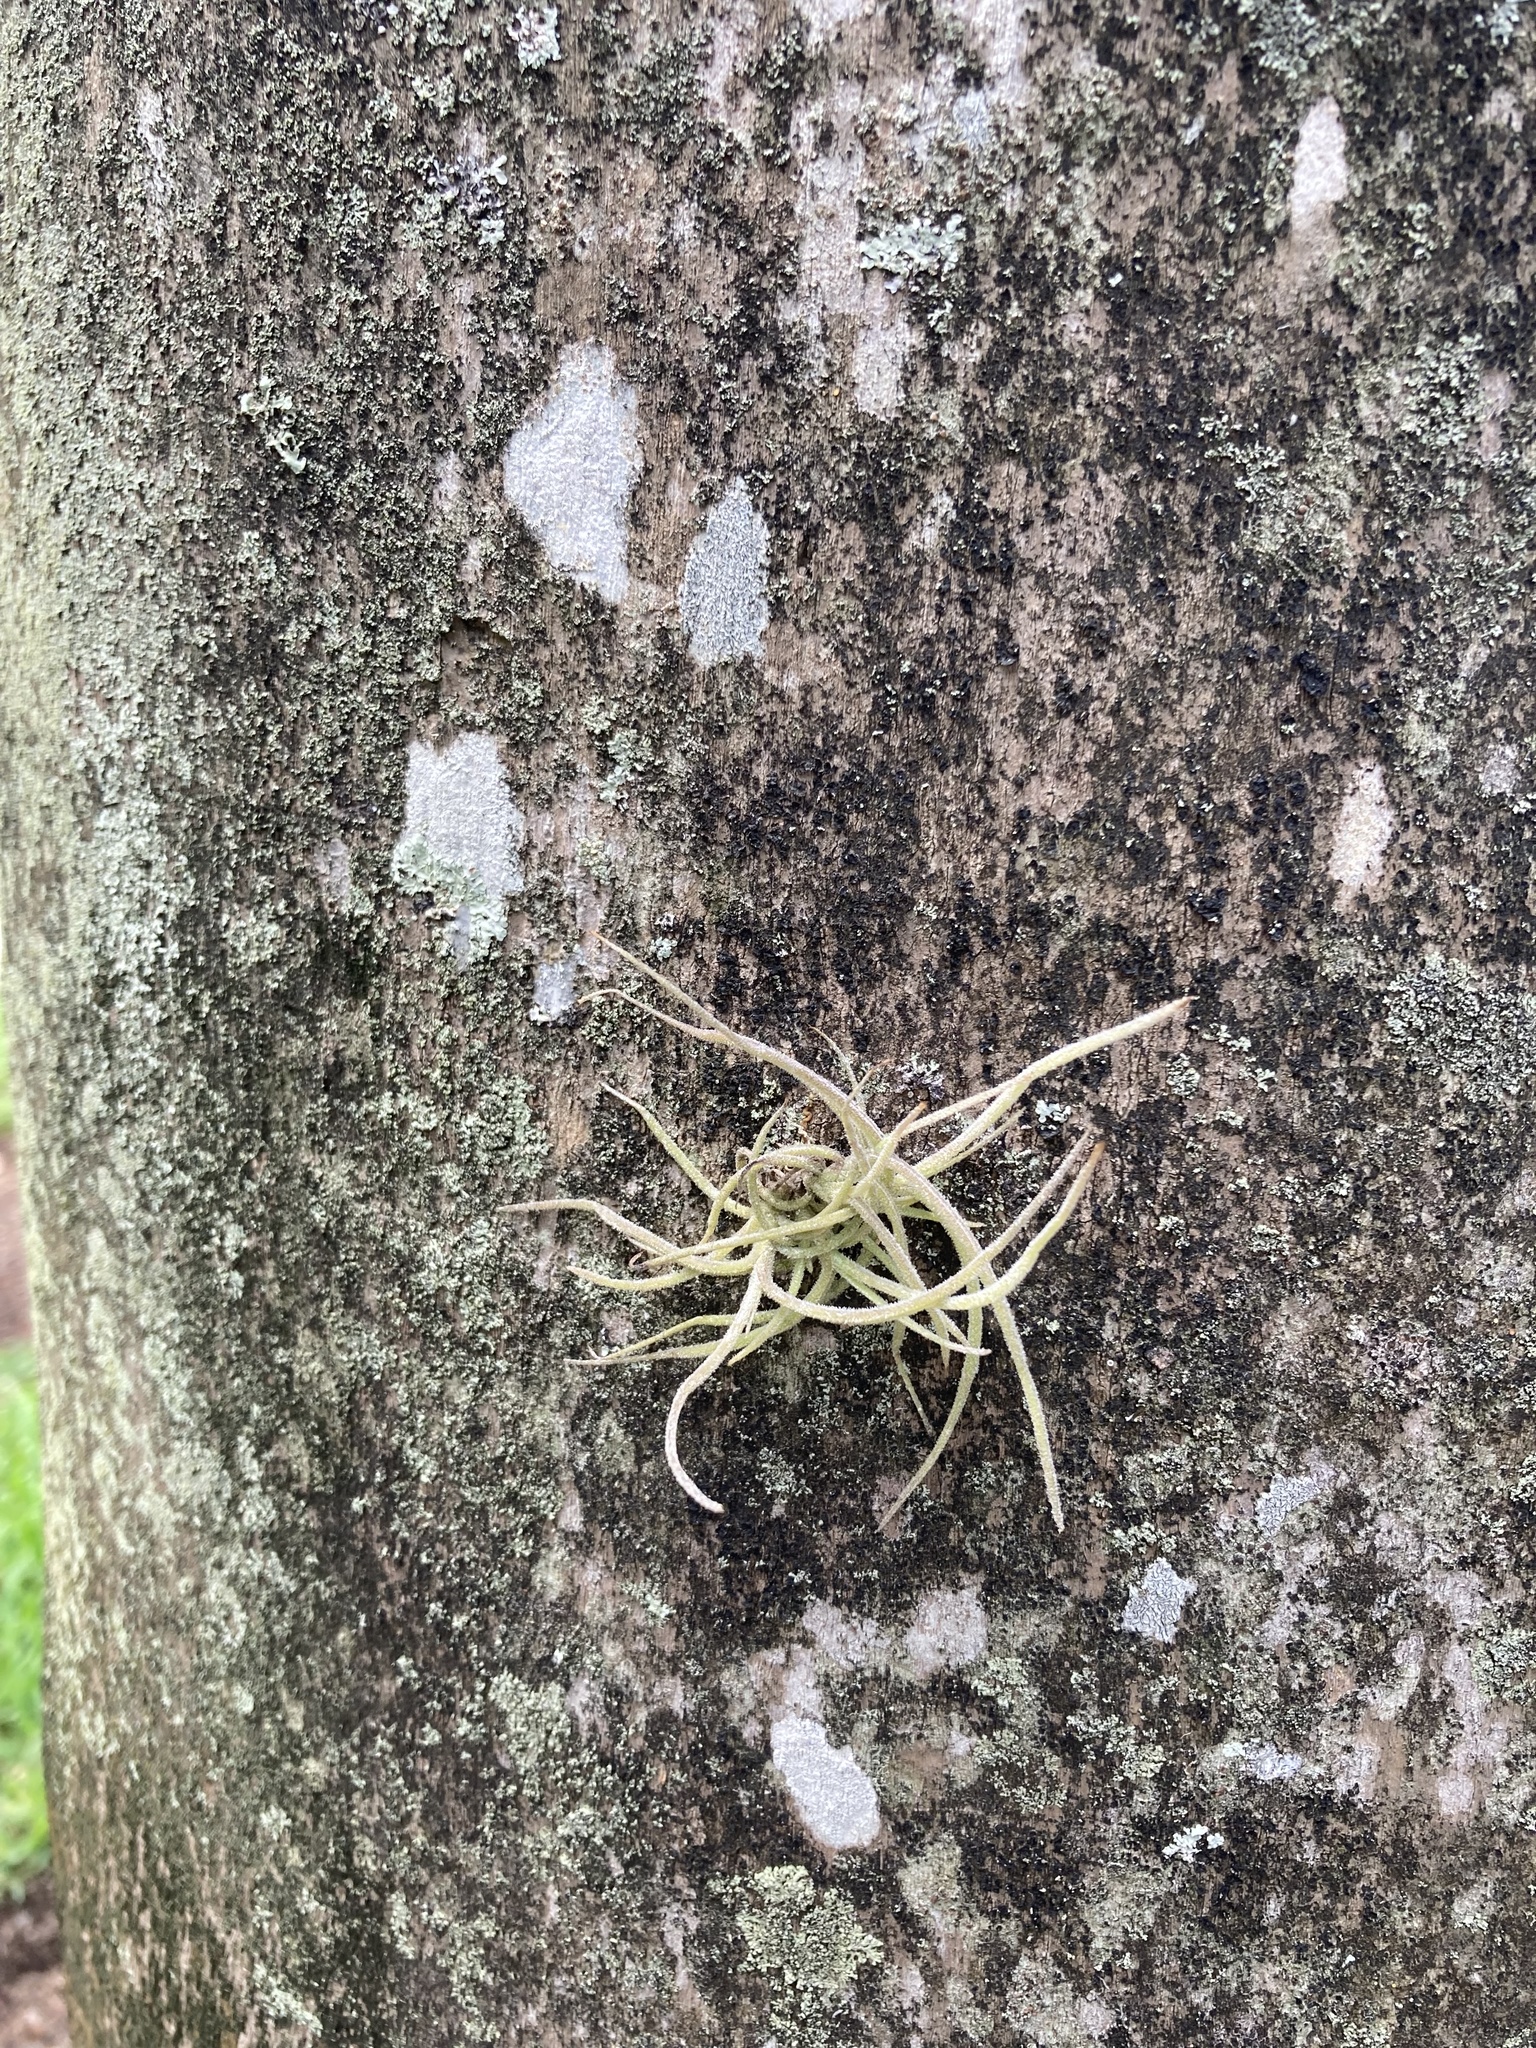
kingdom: Plantae
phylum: Tracheophyta
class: Liliopsida
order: Poales
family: Bromeliaceae
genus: Tillandsia
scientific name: Tillandsia recurvata
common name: Small ballmoss
